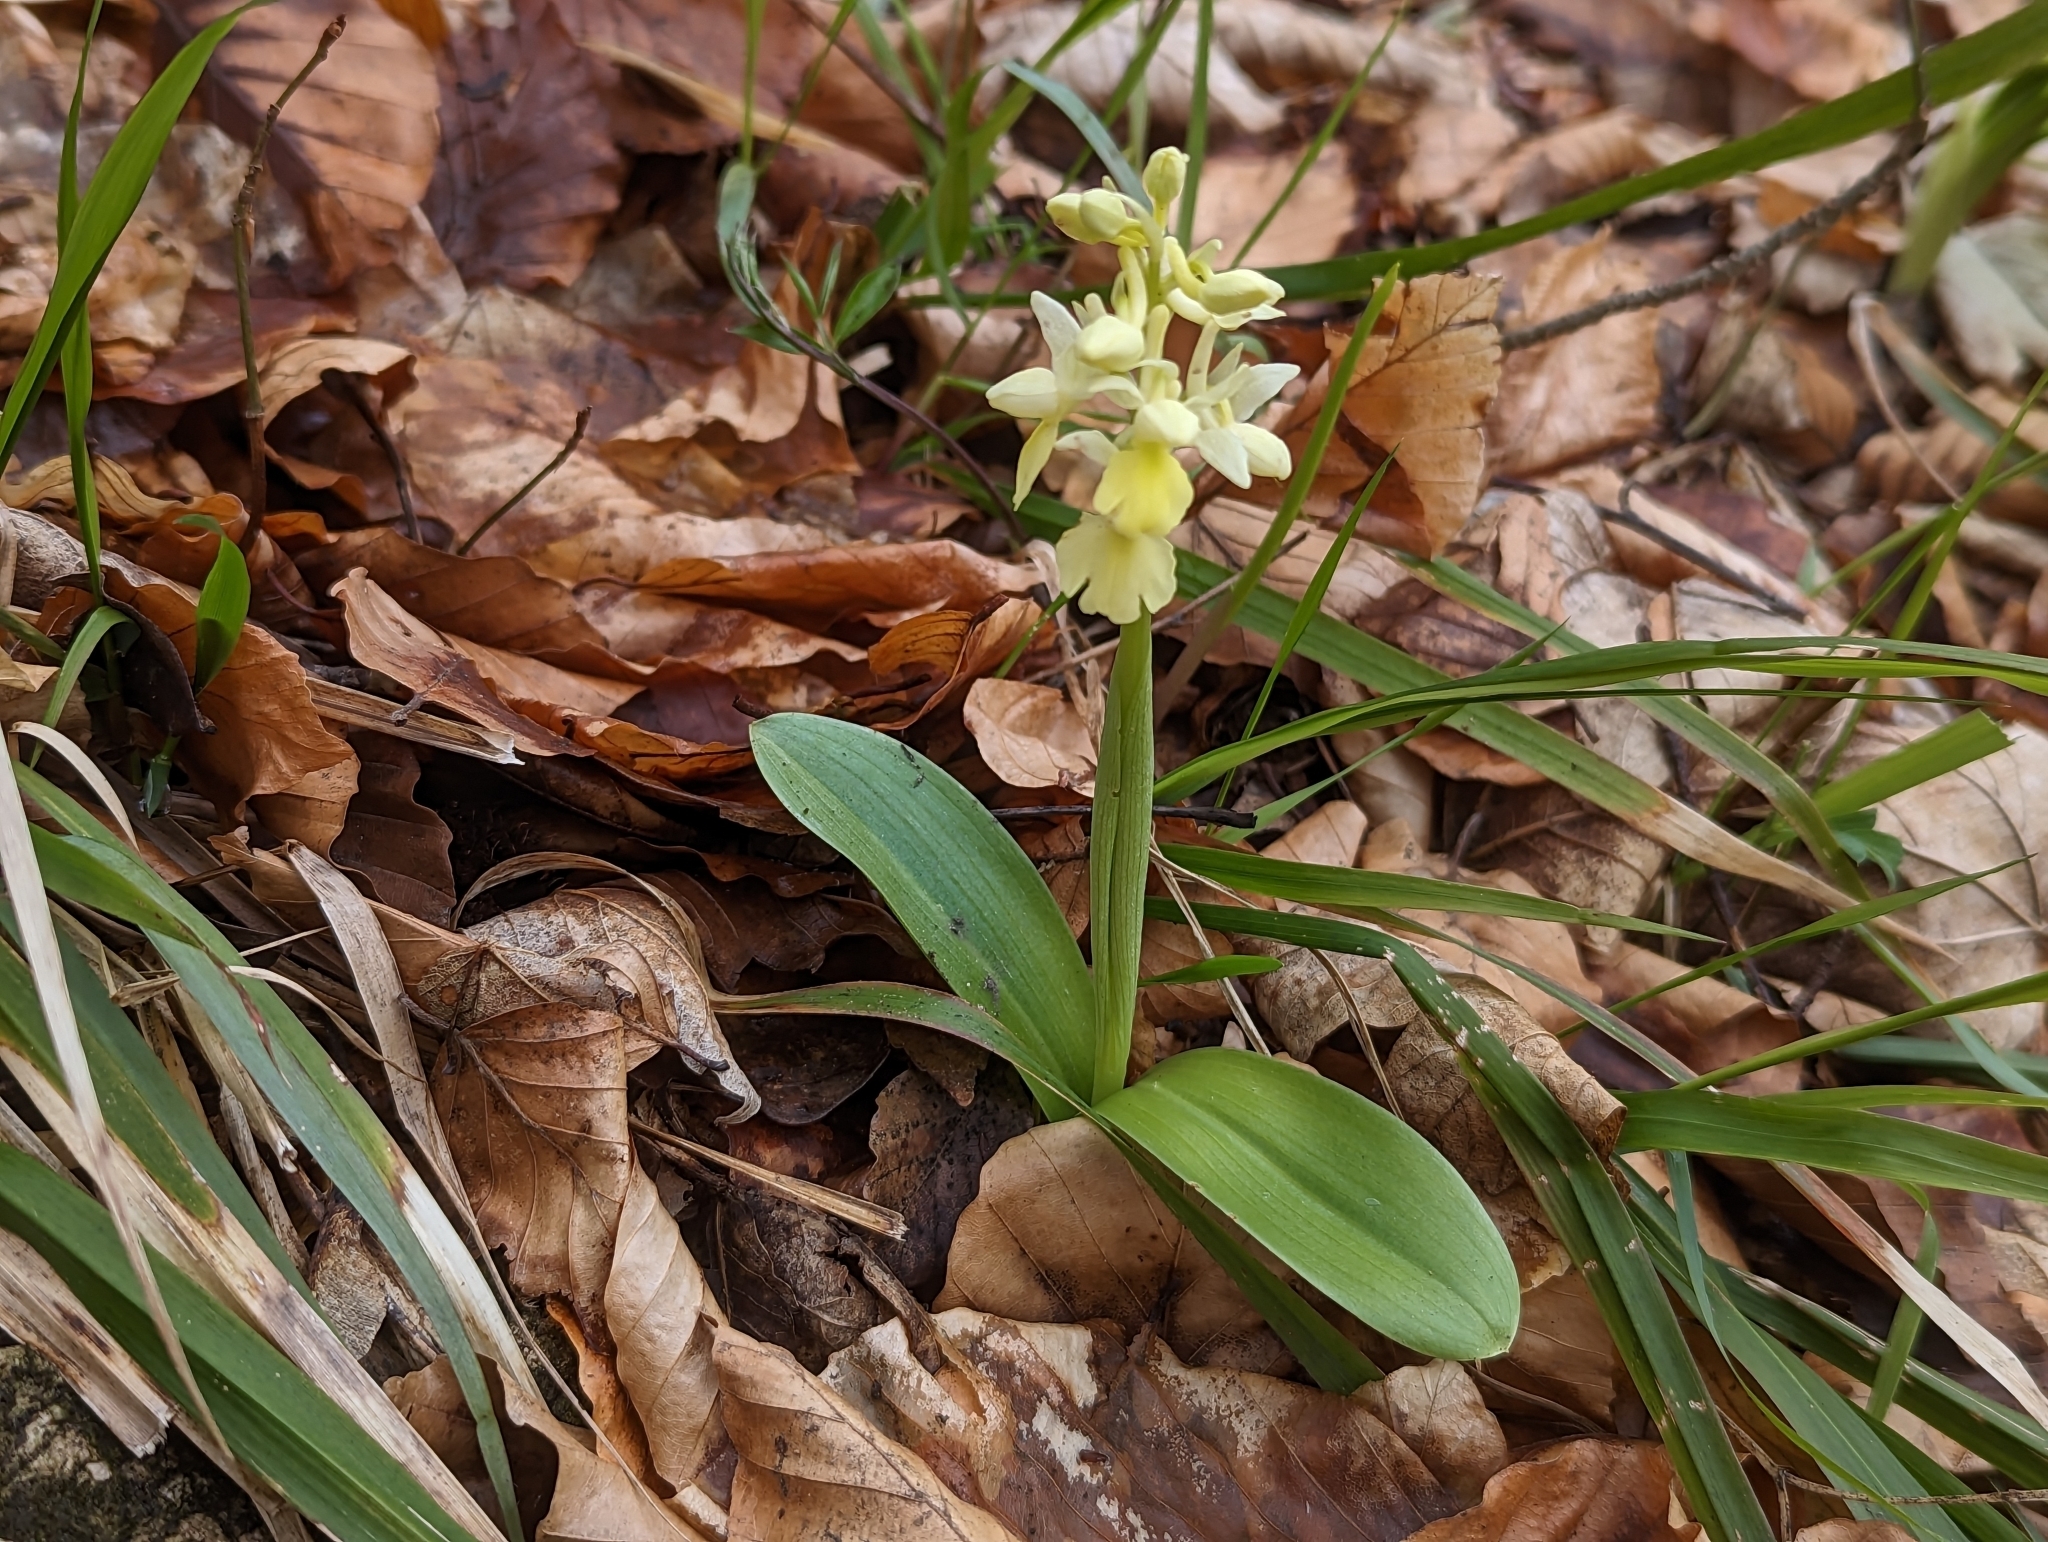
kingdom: Plantae
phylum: Tracheophyta
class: Liliopsida
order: Asparagales
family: Orchidaceae
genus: Orchis
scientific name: Orchis pallens
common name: Pale-flowered orchid
